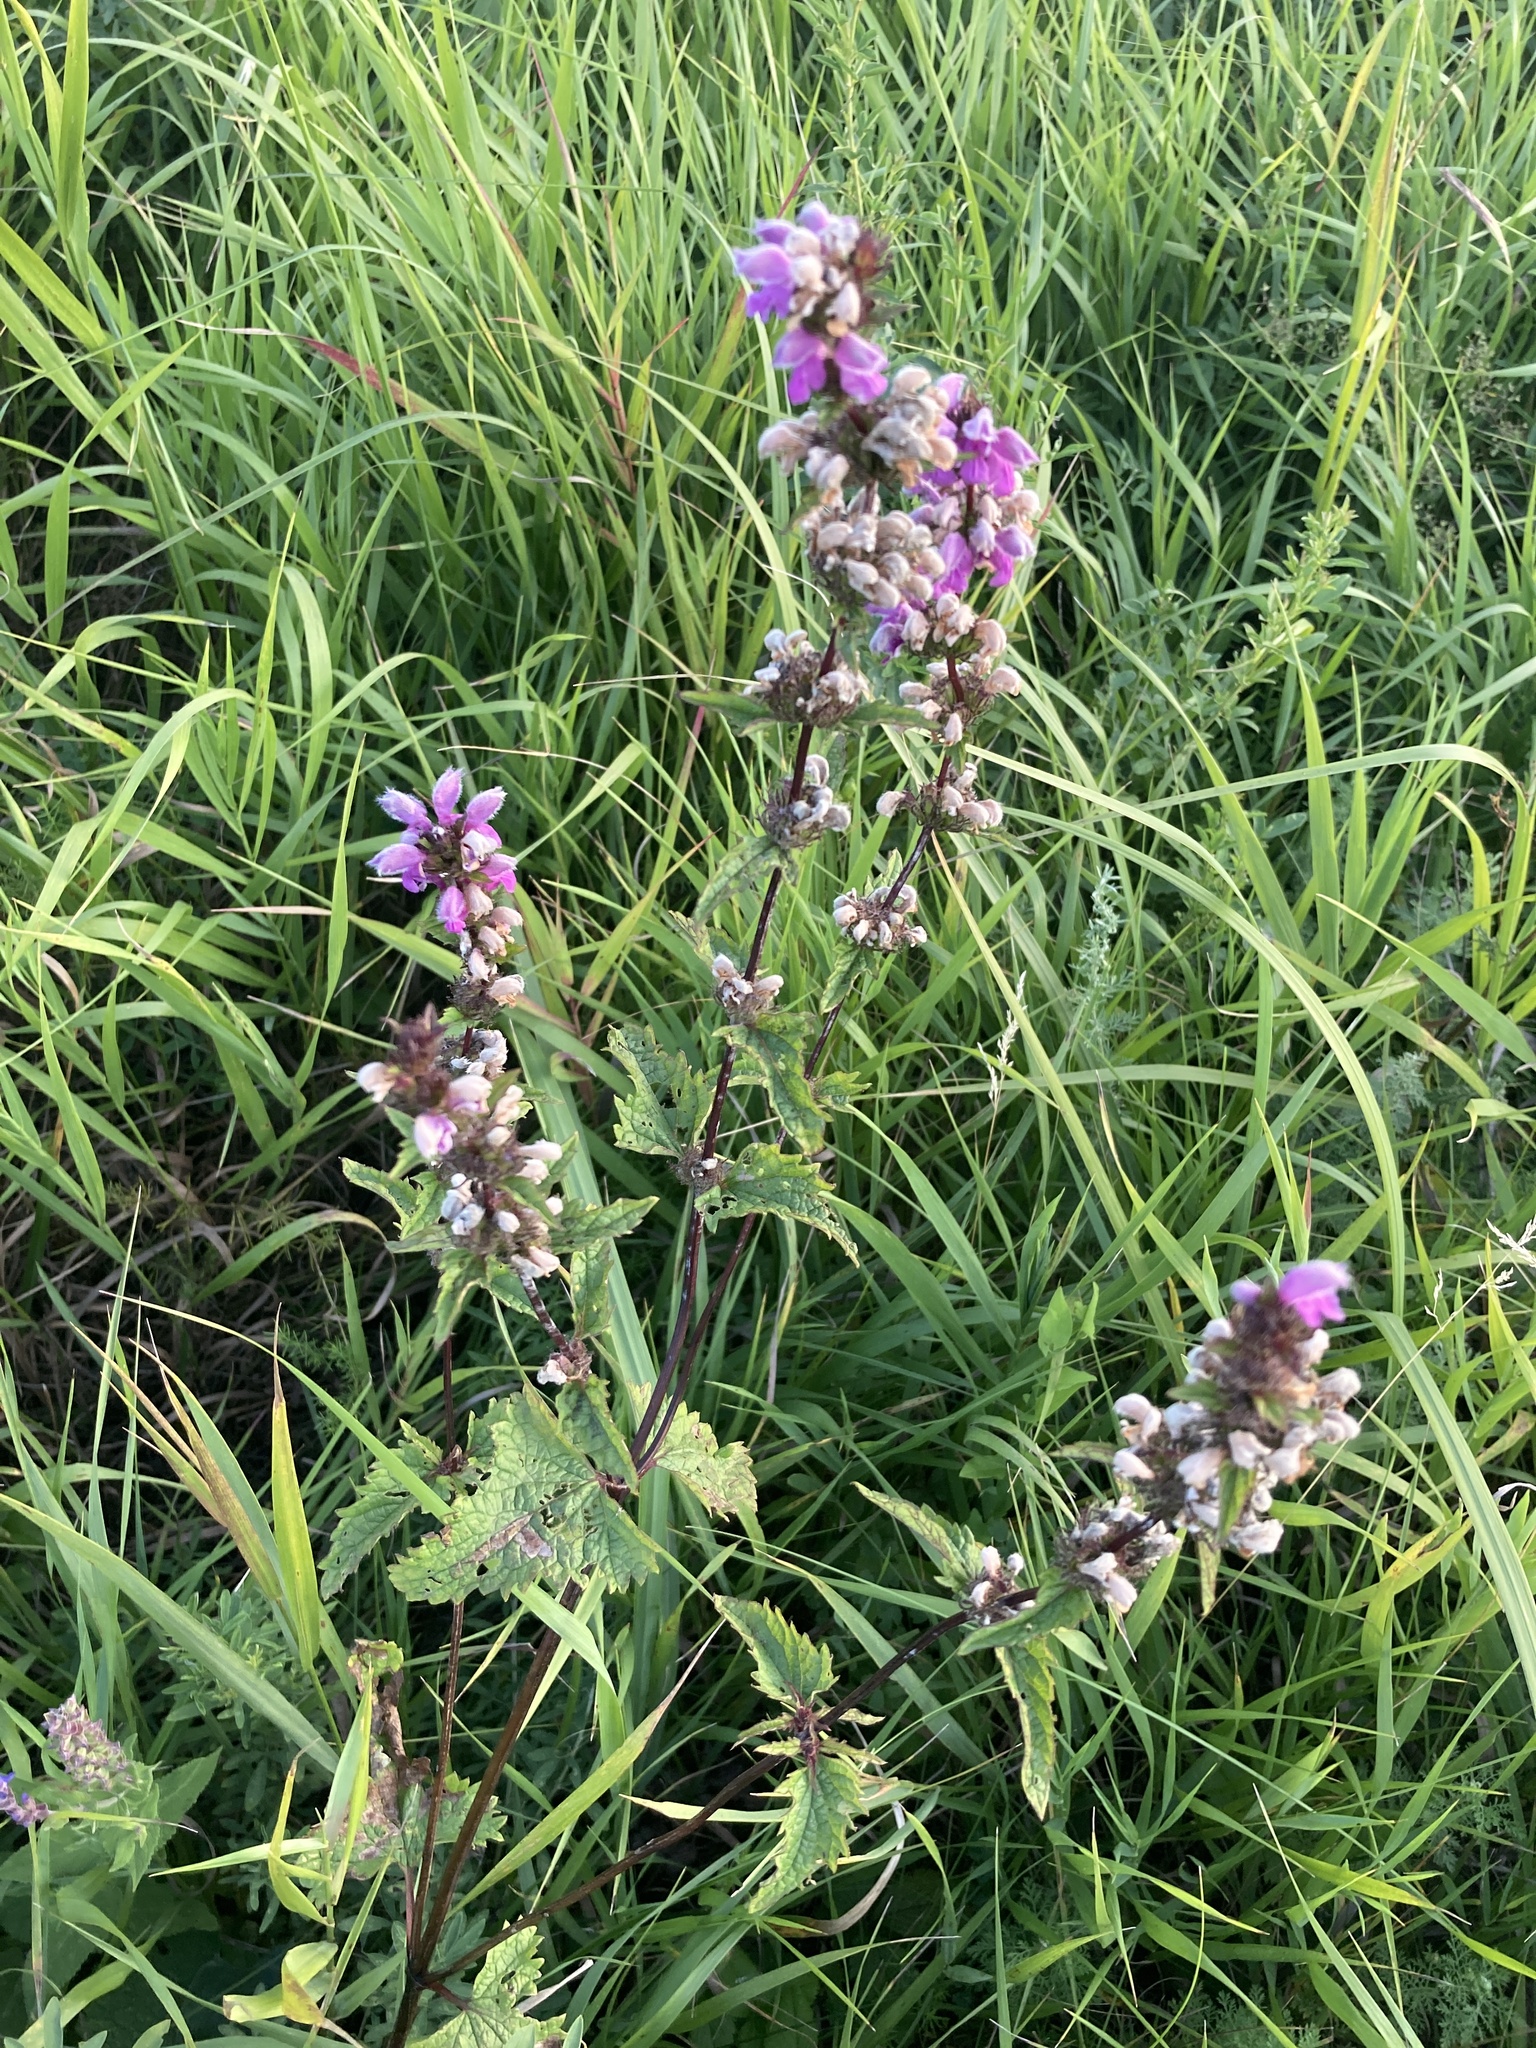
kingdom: Plantae
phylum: Tracheophyta
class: Magnoliopsida
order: Lamiales
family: Lamiaceae
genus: Phlomoides
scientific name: Phlomoides tuberosa
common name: Tuberous jerusalem sage
